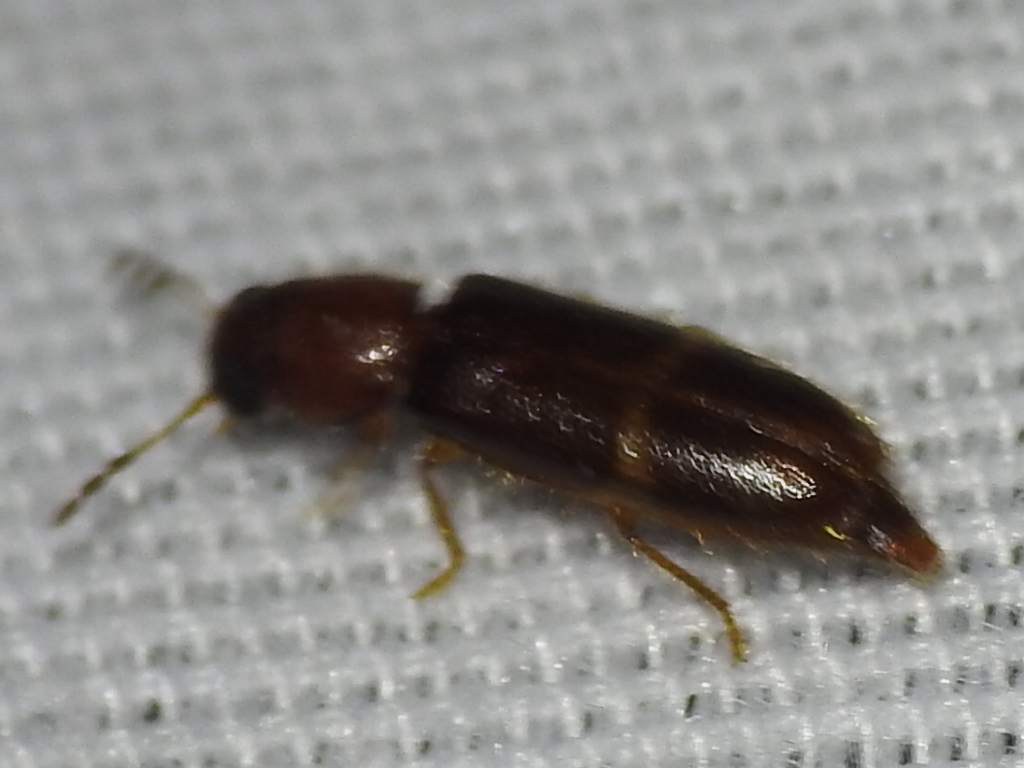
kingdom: Animalia
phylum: Arthropoda
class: Insecta
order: Coleoptera
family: Cleridae
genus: Neorthopleura
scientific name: Neorthopleura texana
